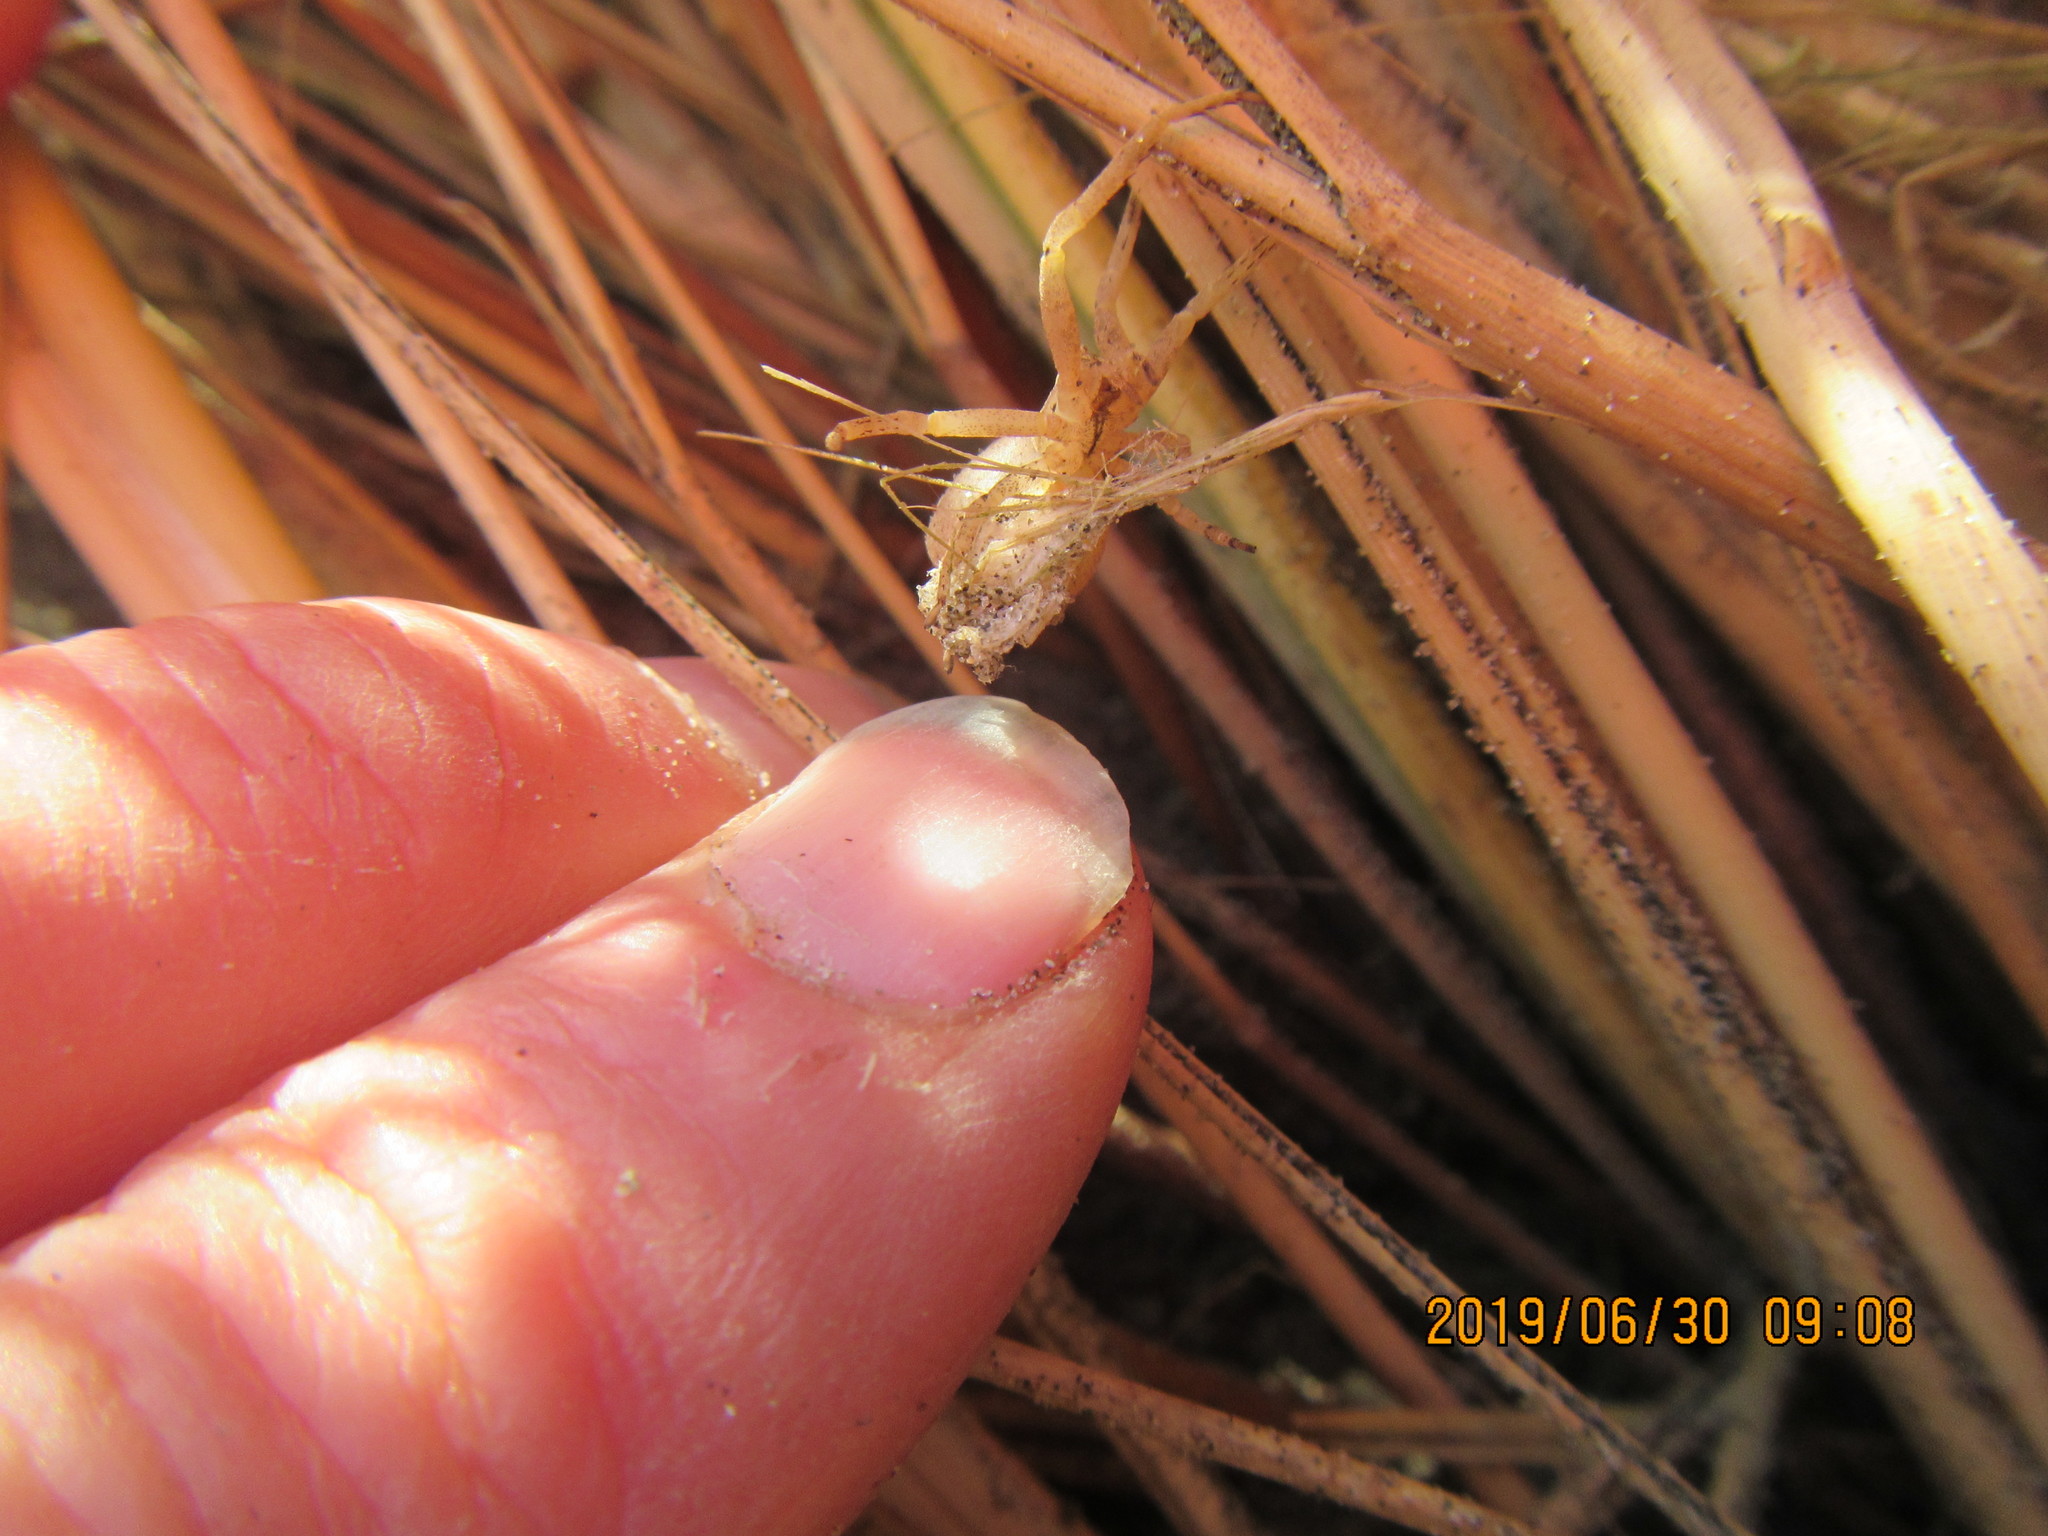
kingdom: Animalia
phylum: Arthropoda
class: Arachnida
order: Araneae
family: Thomisidae
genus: Sidymella
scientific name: Sidymella trapezia
